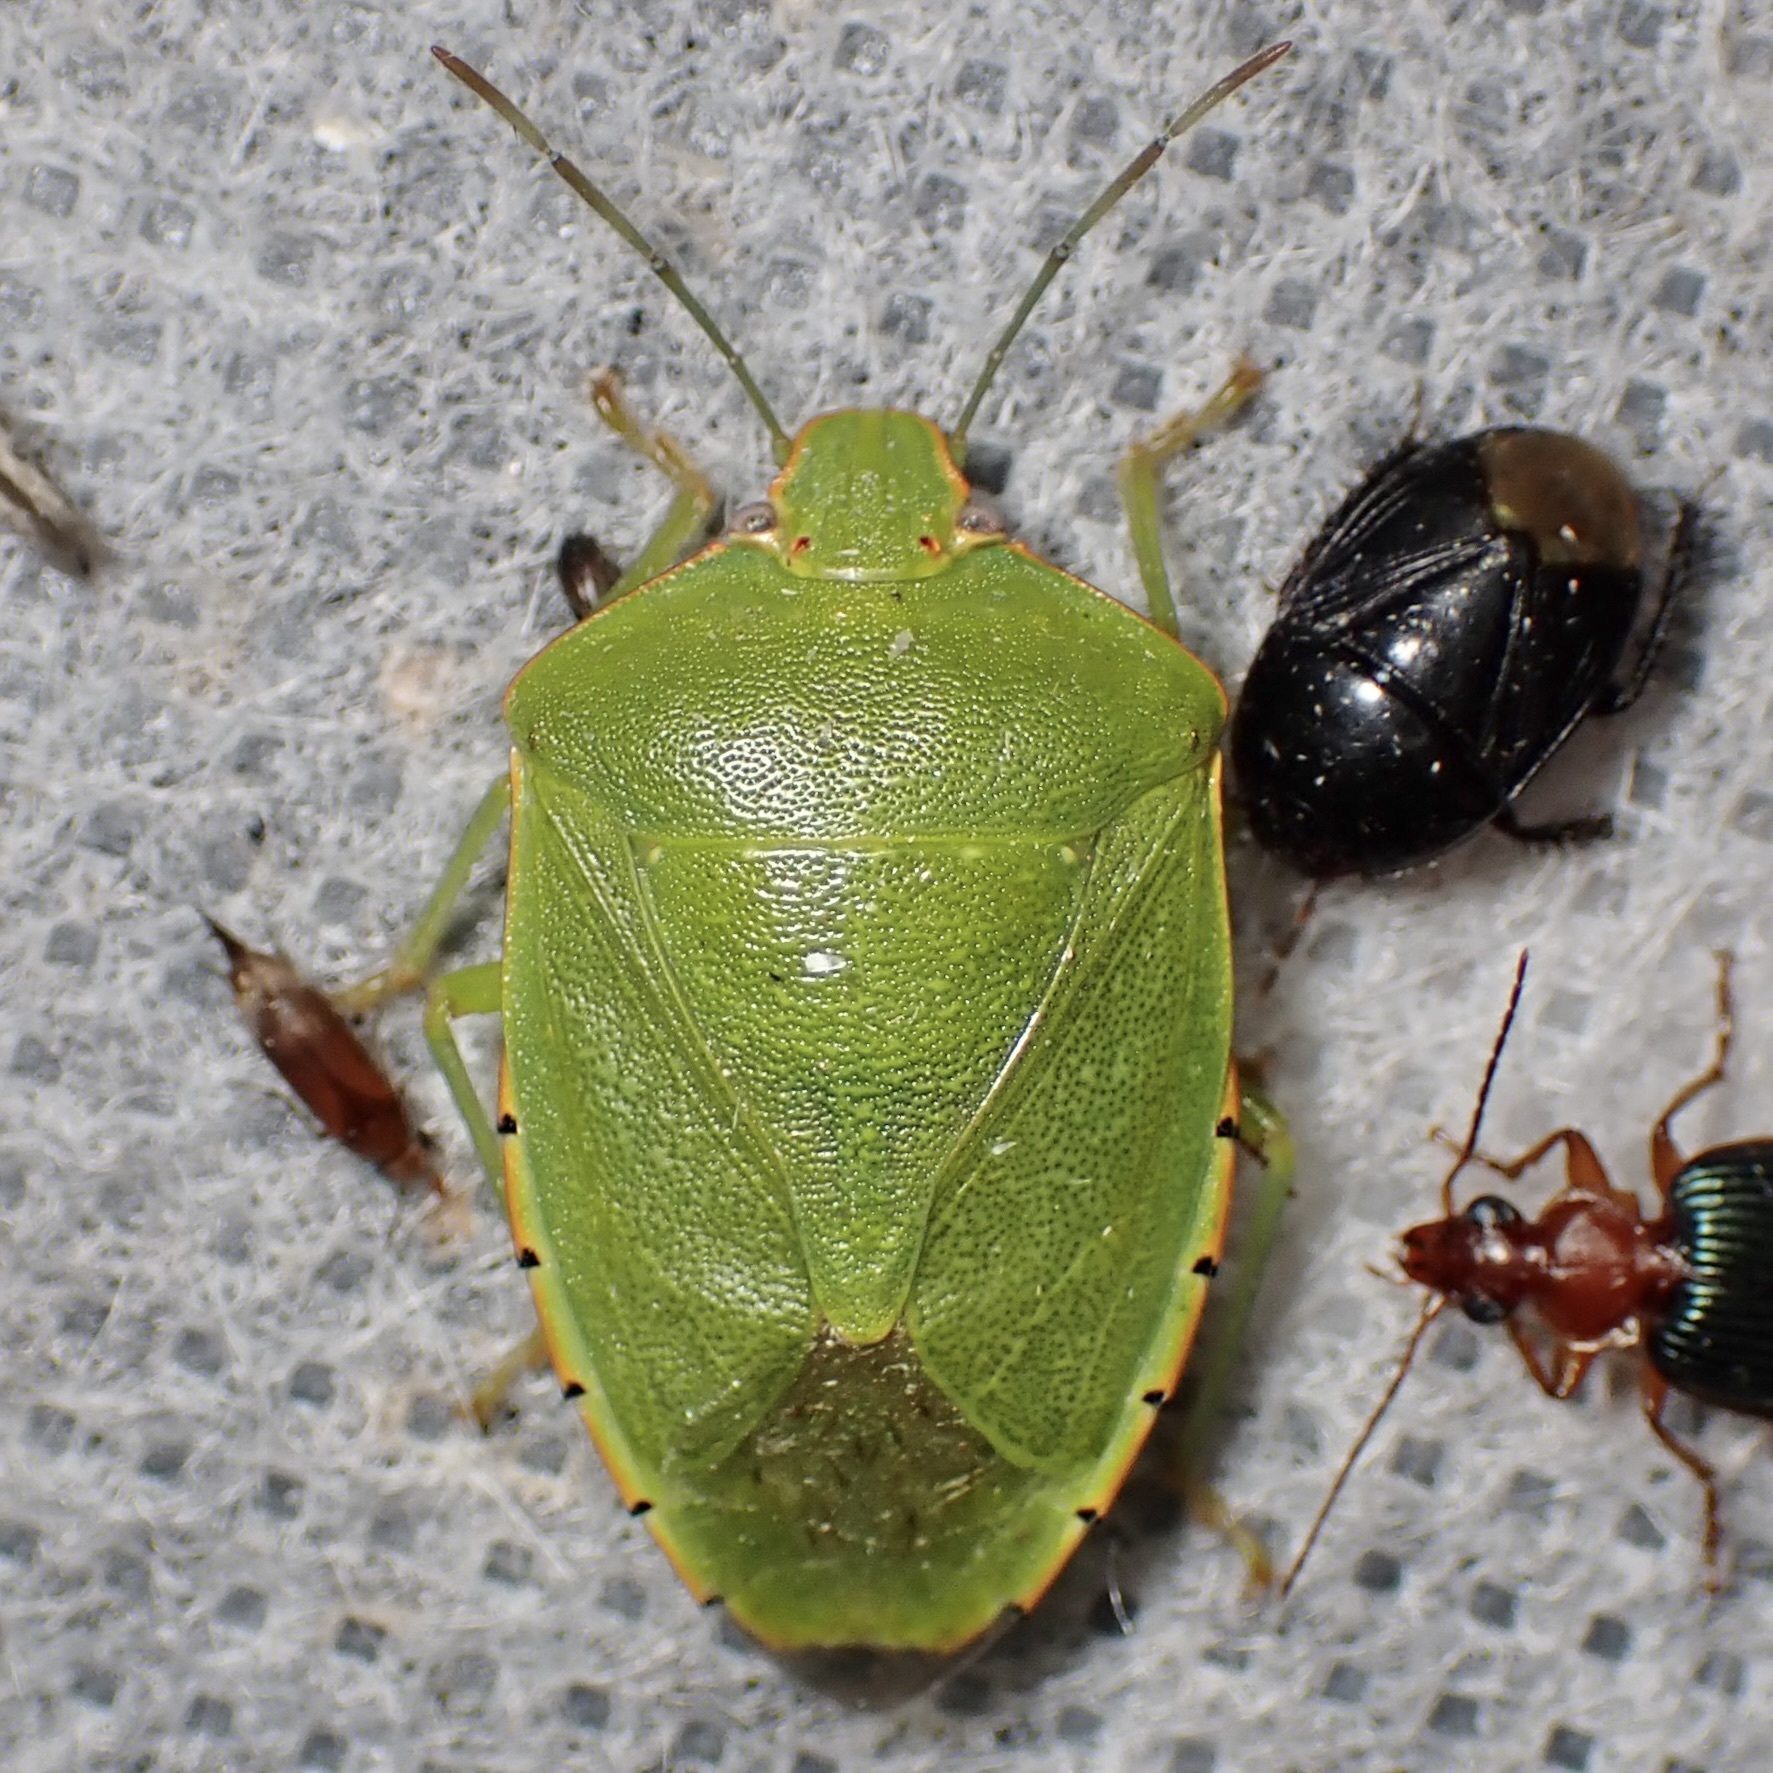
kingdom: Animalia
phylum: Arthropoda
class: Insecta
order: Hemiptera
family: Pentatomidae
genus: Chinavia
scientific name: Chinavia hilaris
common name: Green stink bug
